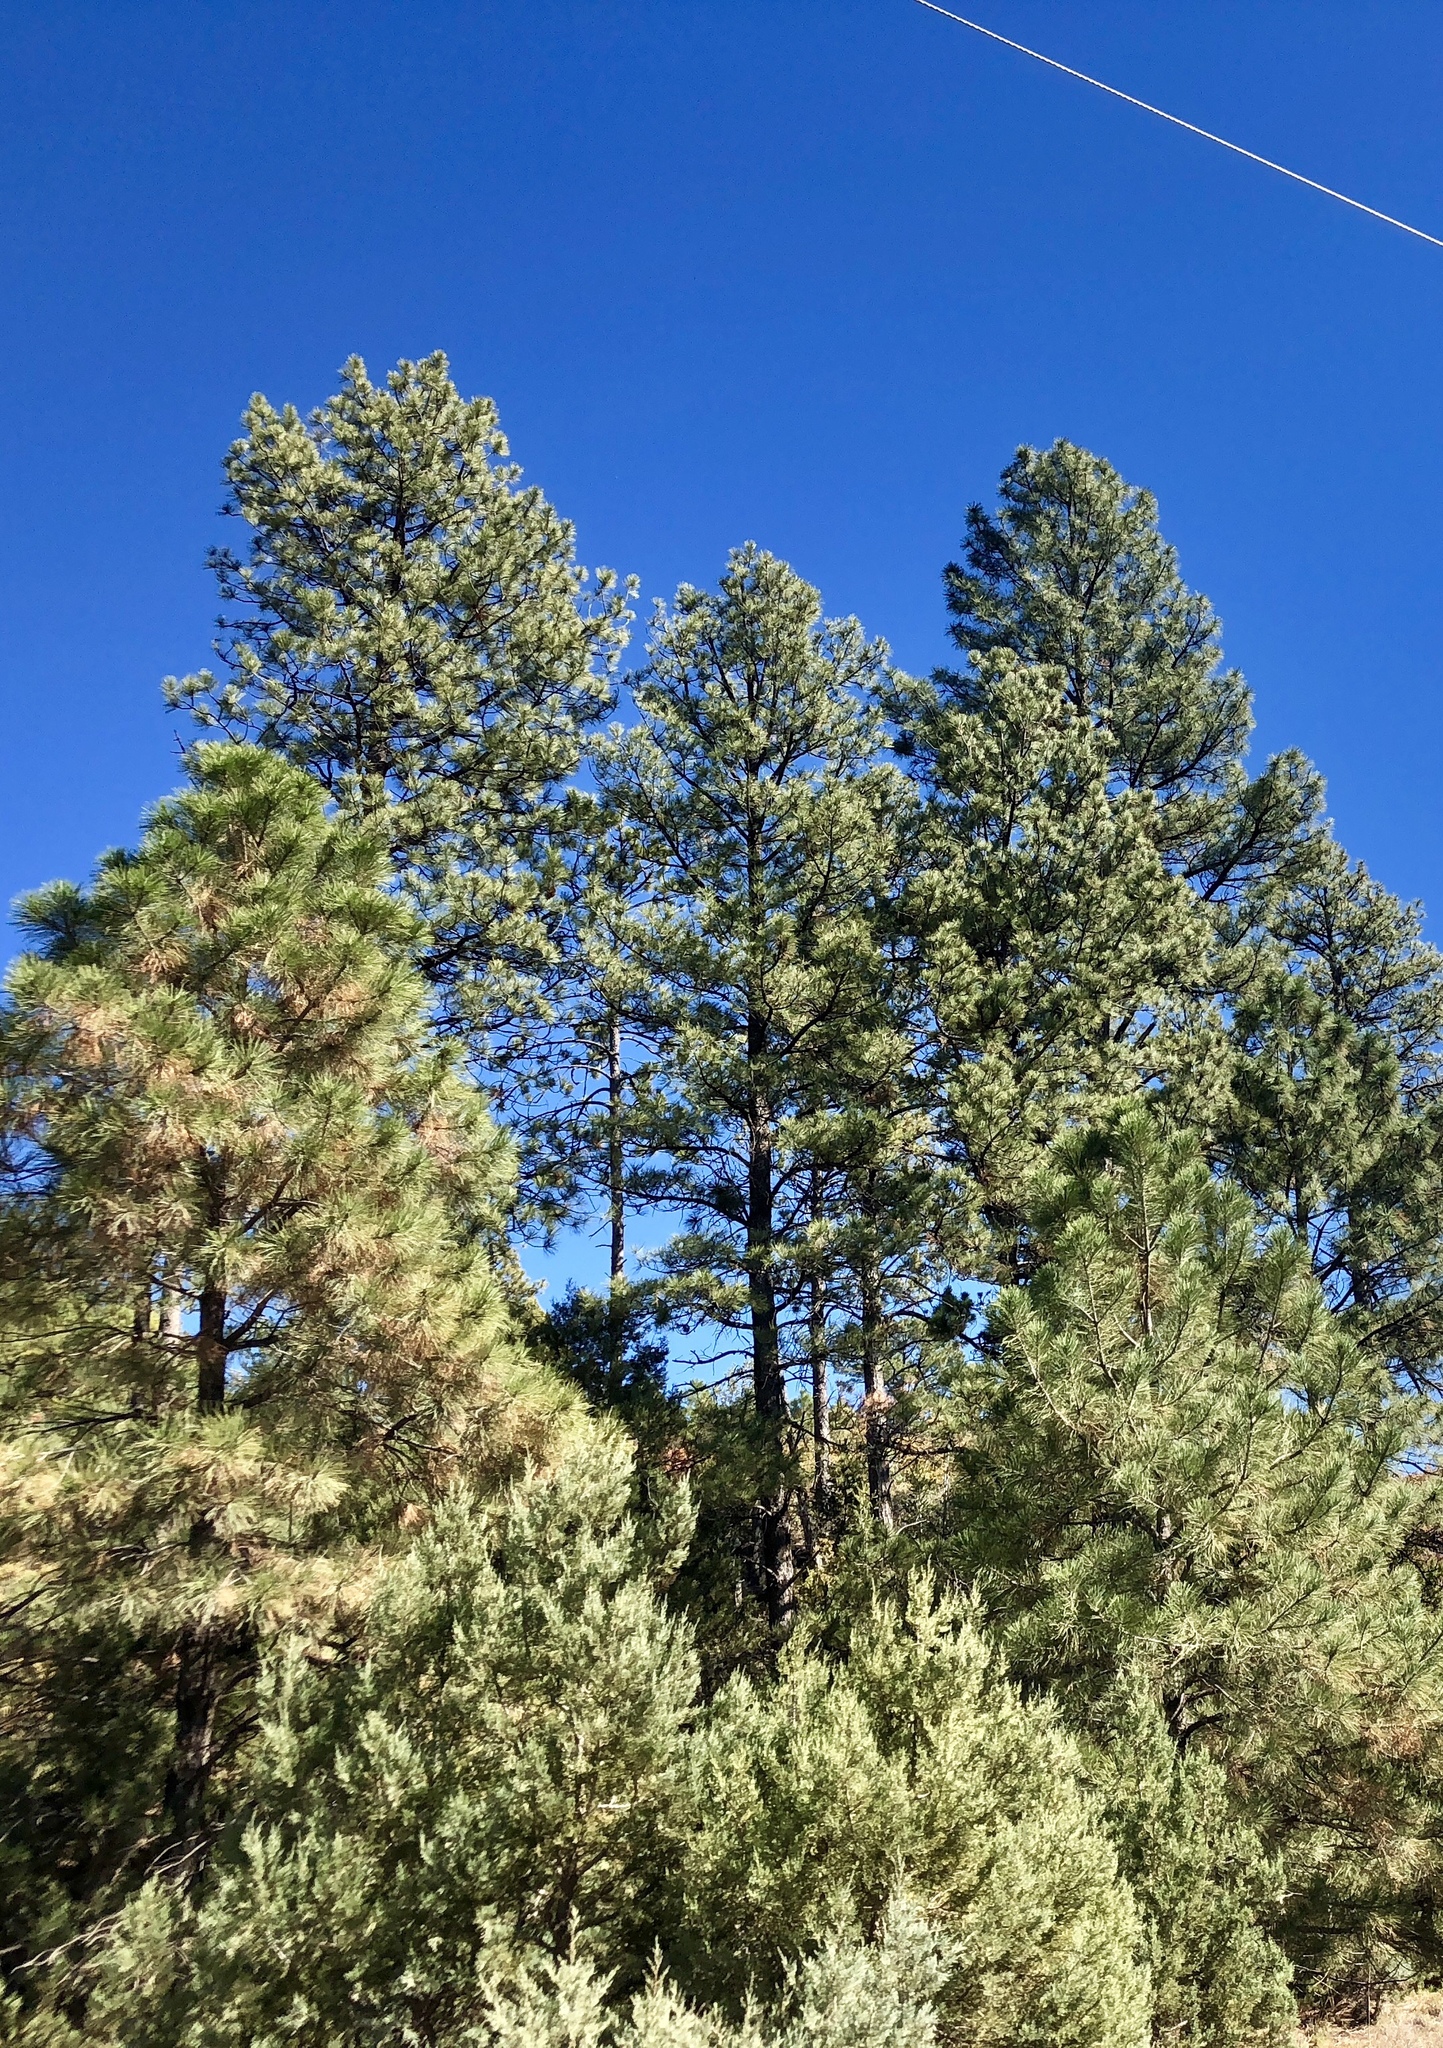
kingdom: Plantae
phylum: Tracheophyta
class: Pinopsida
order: Pinales
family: Pinaceae
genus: Pinus
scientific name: Pinus ponderosa
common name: Western yellow-pine
